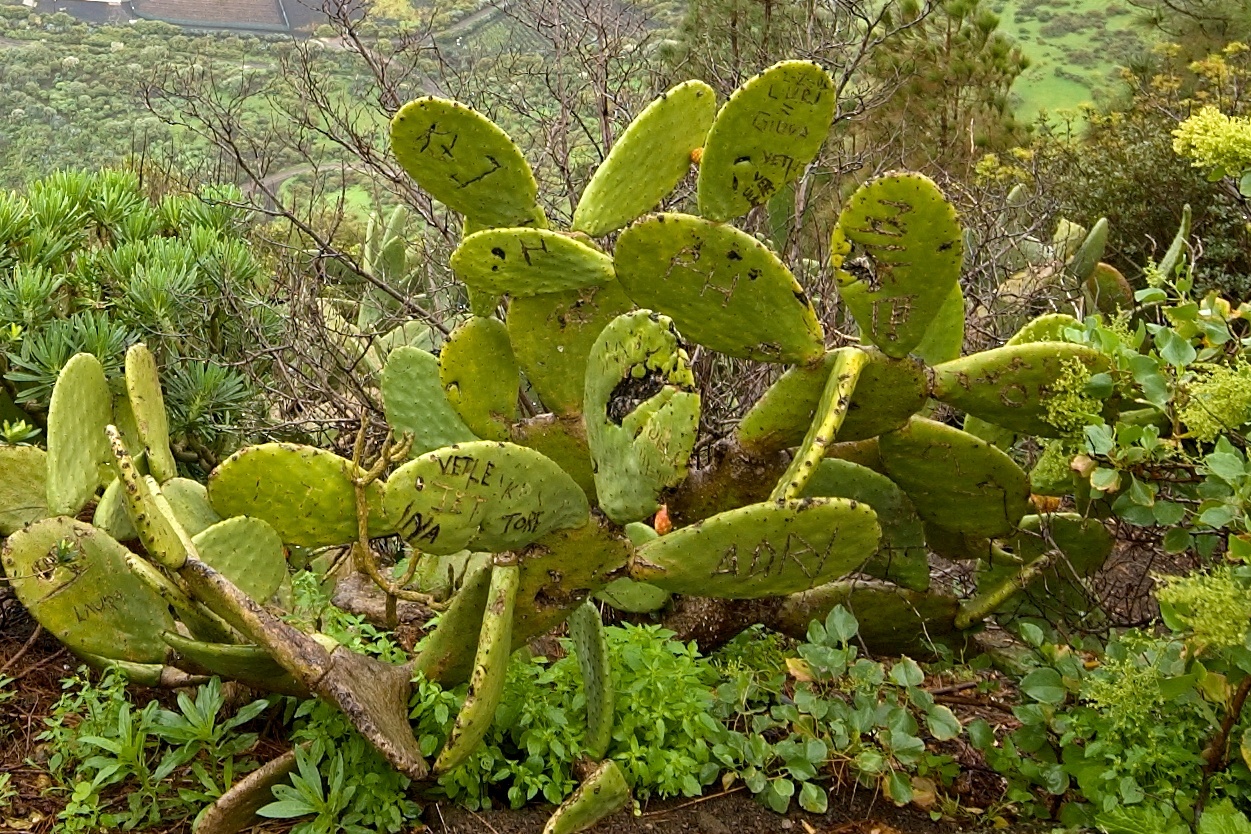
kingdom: Plantae
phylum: Tracheophyta
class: Magnoliopsida
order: Caryophyllales
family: Cactaceae
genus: Opuntia
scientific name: Opuntia ficus-indica
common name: Barbary fig
